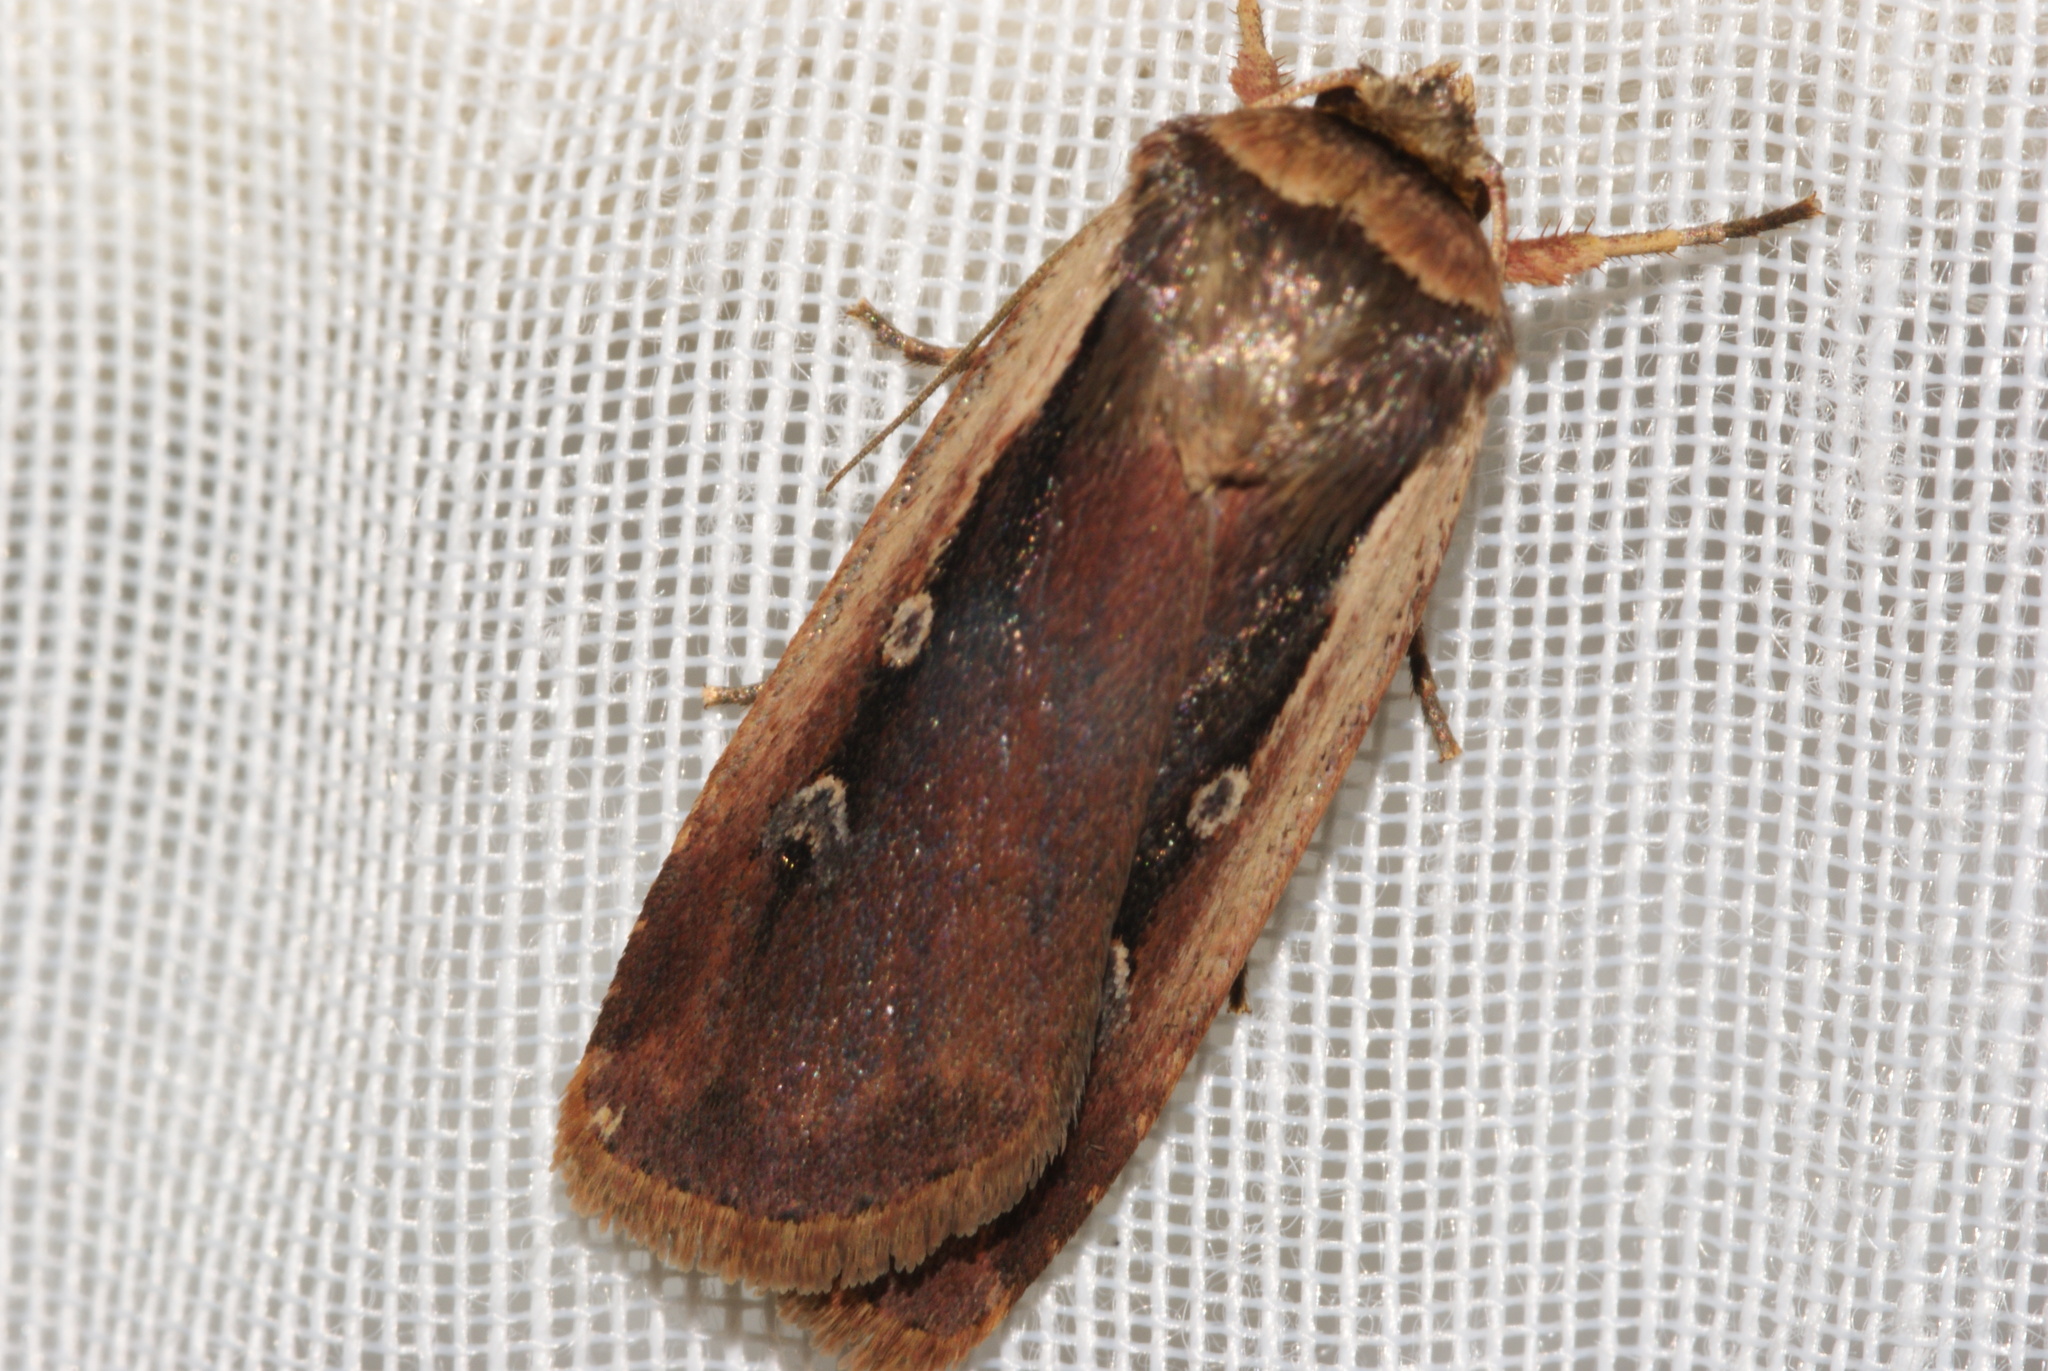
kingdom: Animalia
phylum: Arthropoda
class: Insecta
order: Lepidoptera
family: Noctuidae
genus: Ochropleura
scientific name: Ochropleura plecta
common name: Flame shoulder
